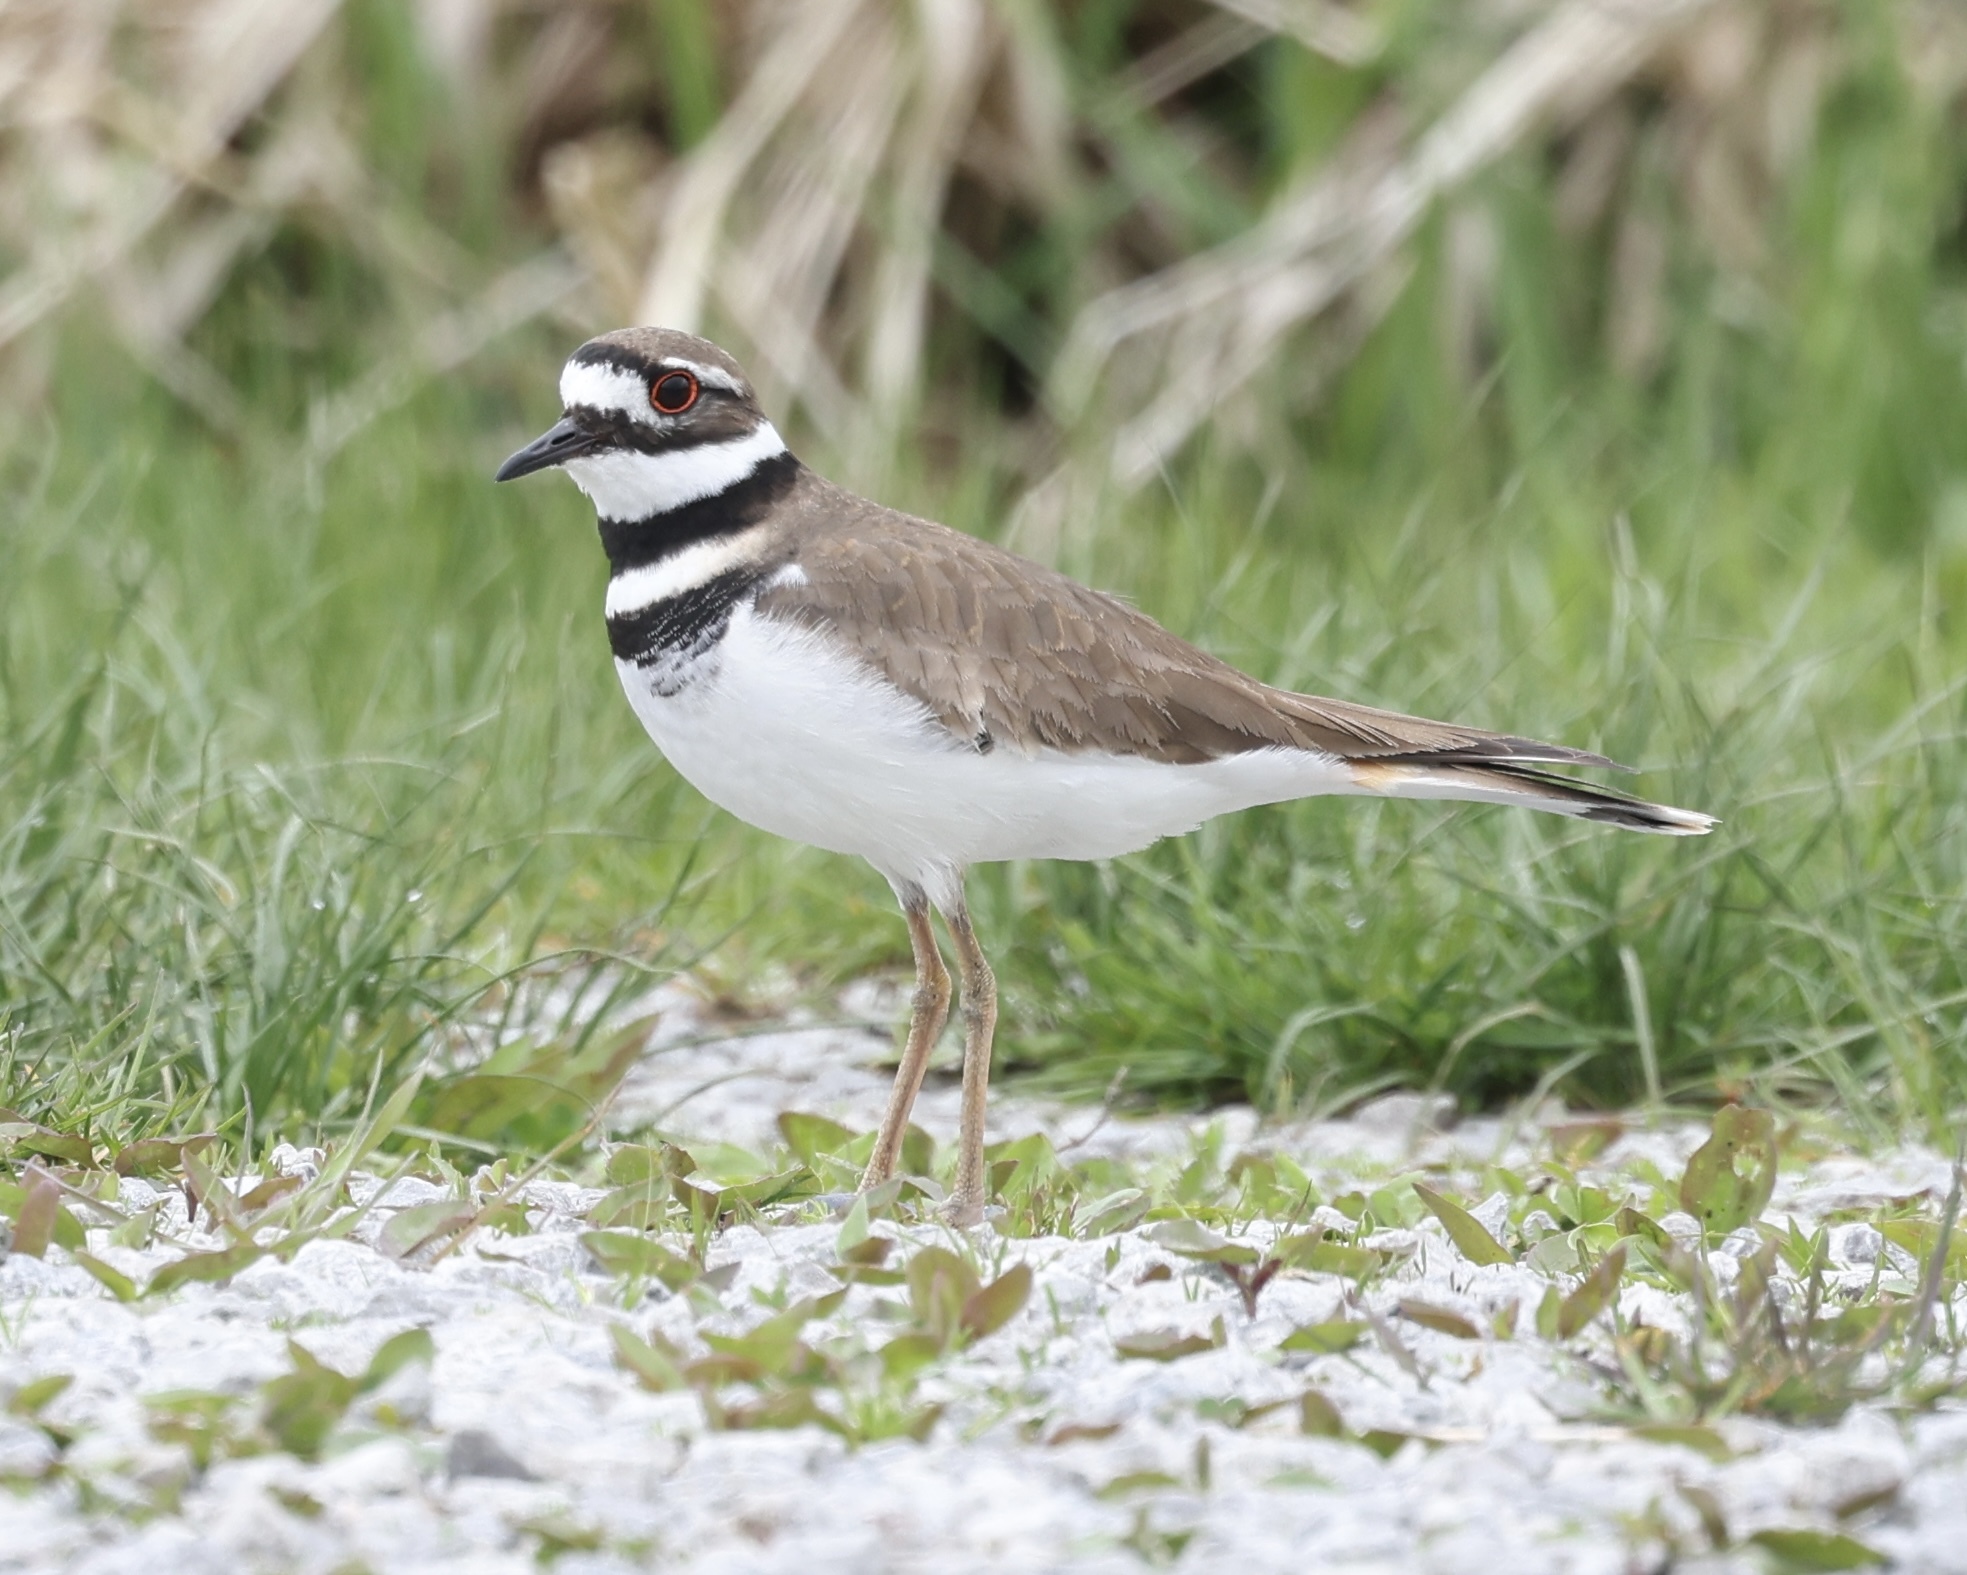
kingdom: Animalia
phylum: Chordata
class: Aves
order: Charadriiformes
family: Charadriidae
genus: Charadrius
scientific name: Charadrius vociferus
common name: Killdeer
